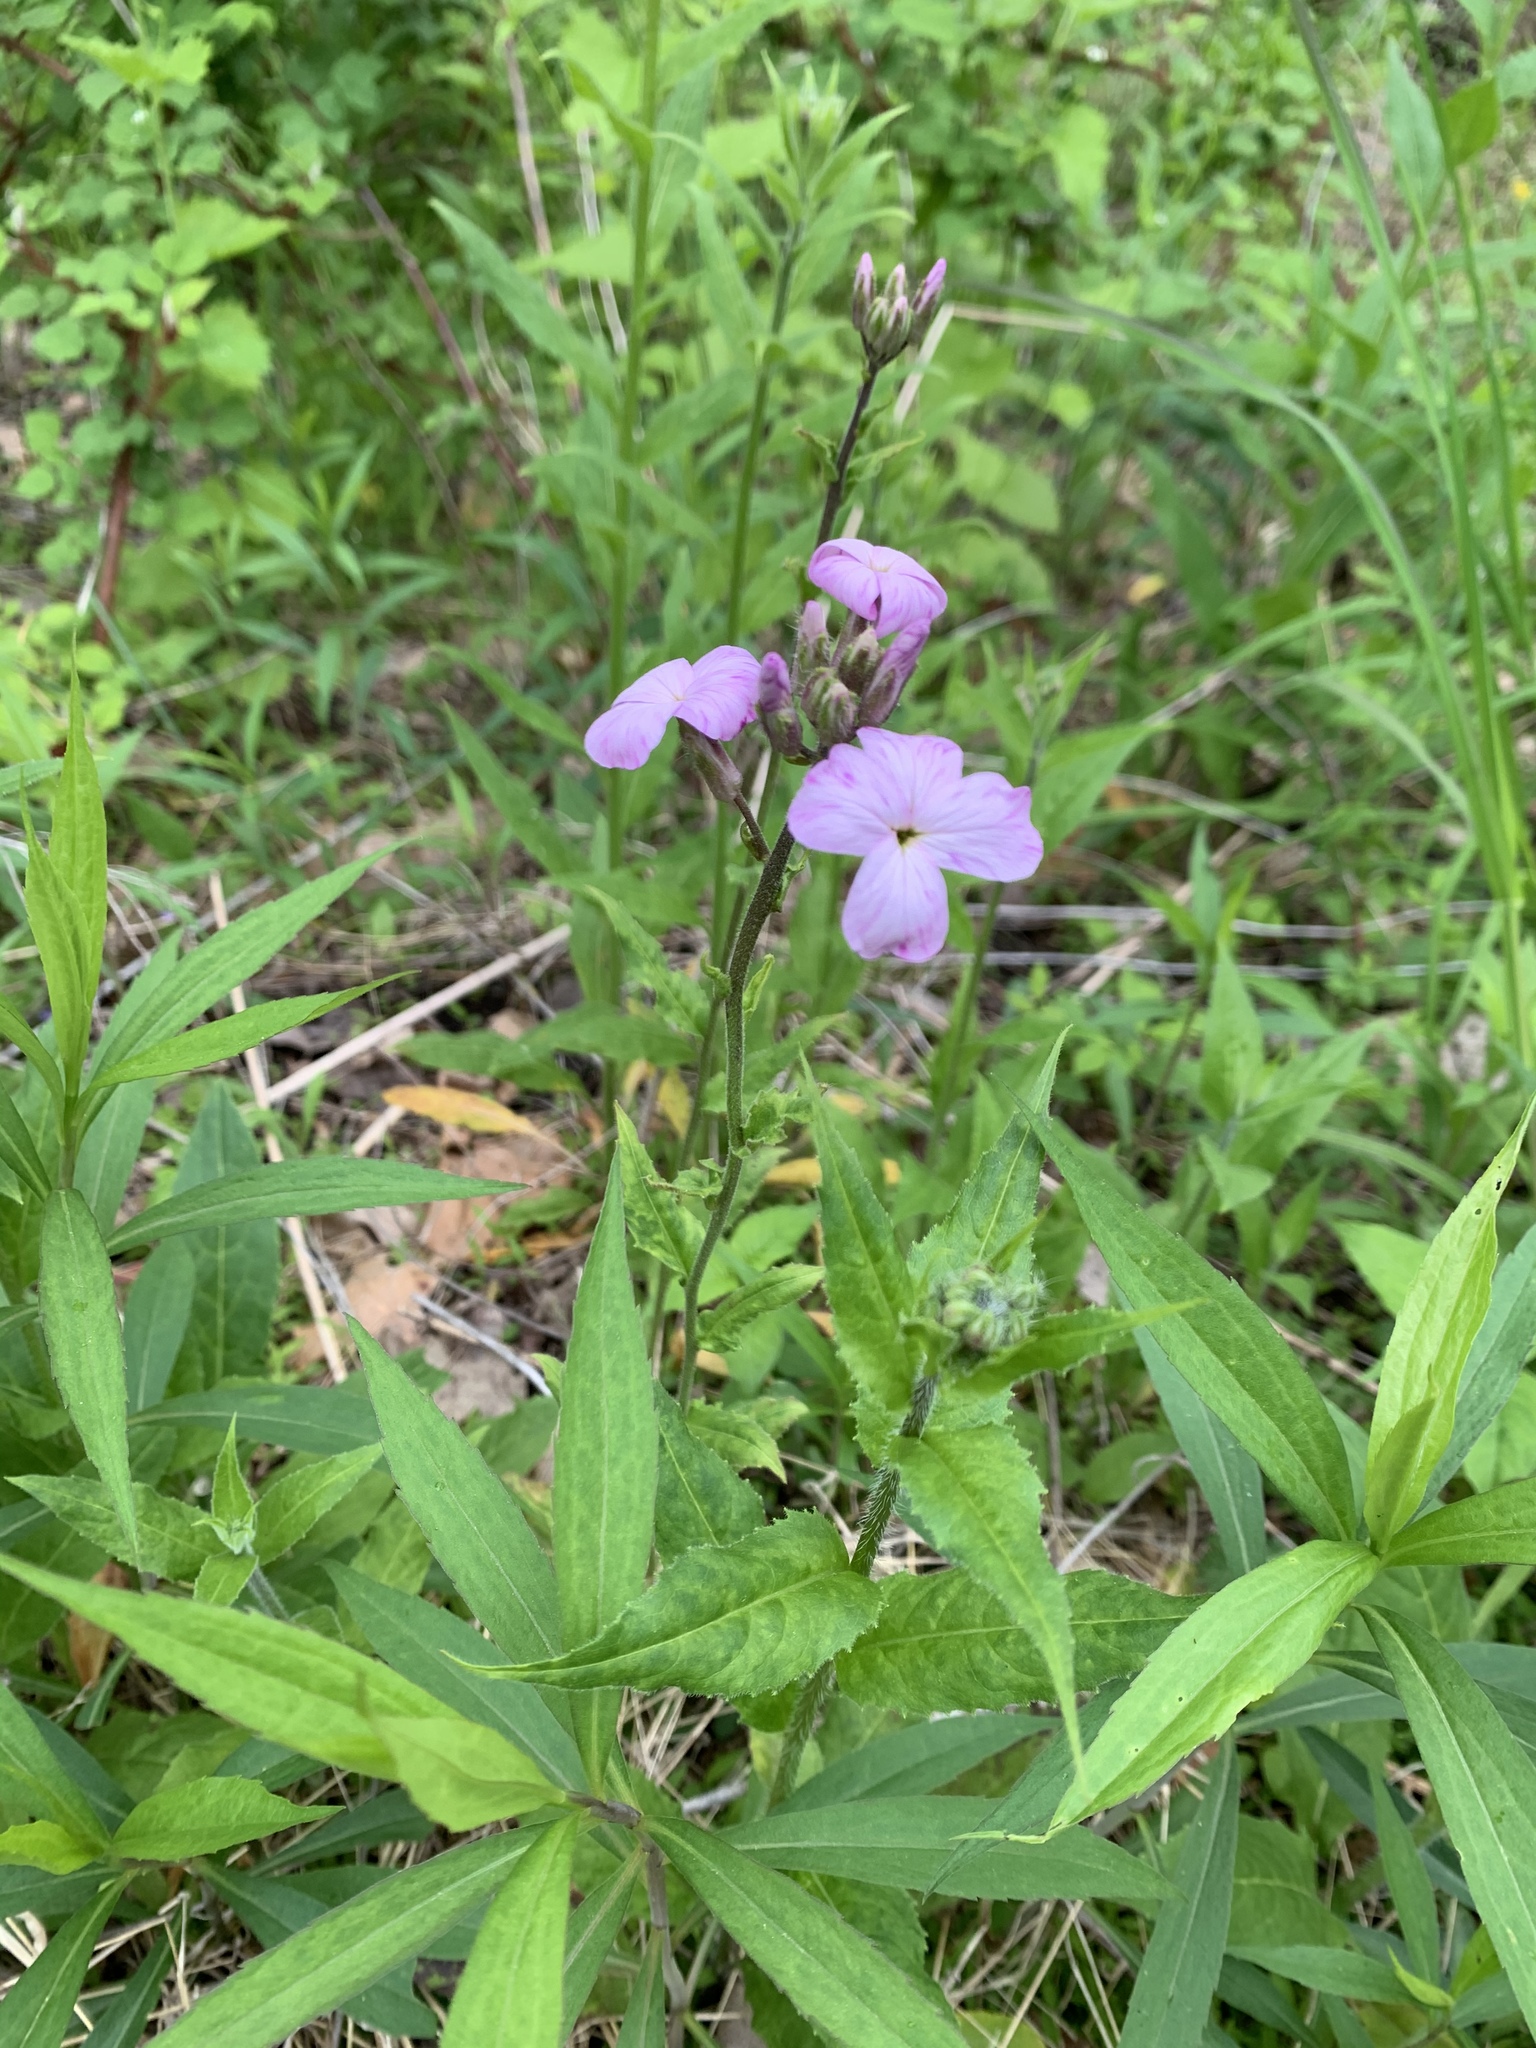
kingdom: Plantae
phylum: Tracheophyta
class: Magnoliopsida
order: Brassicales
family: Brassicaceae
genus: Hesperis
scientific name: Hesperis matronalis
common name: Dame's-violet
